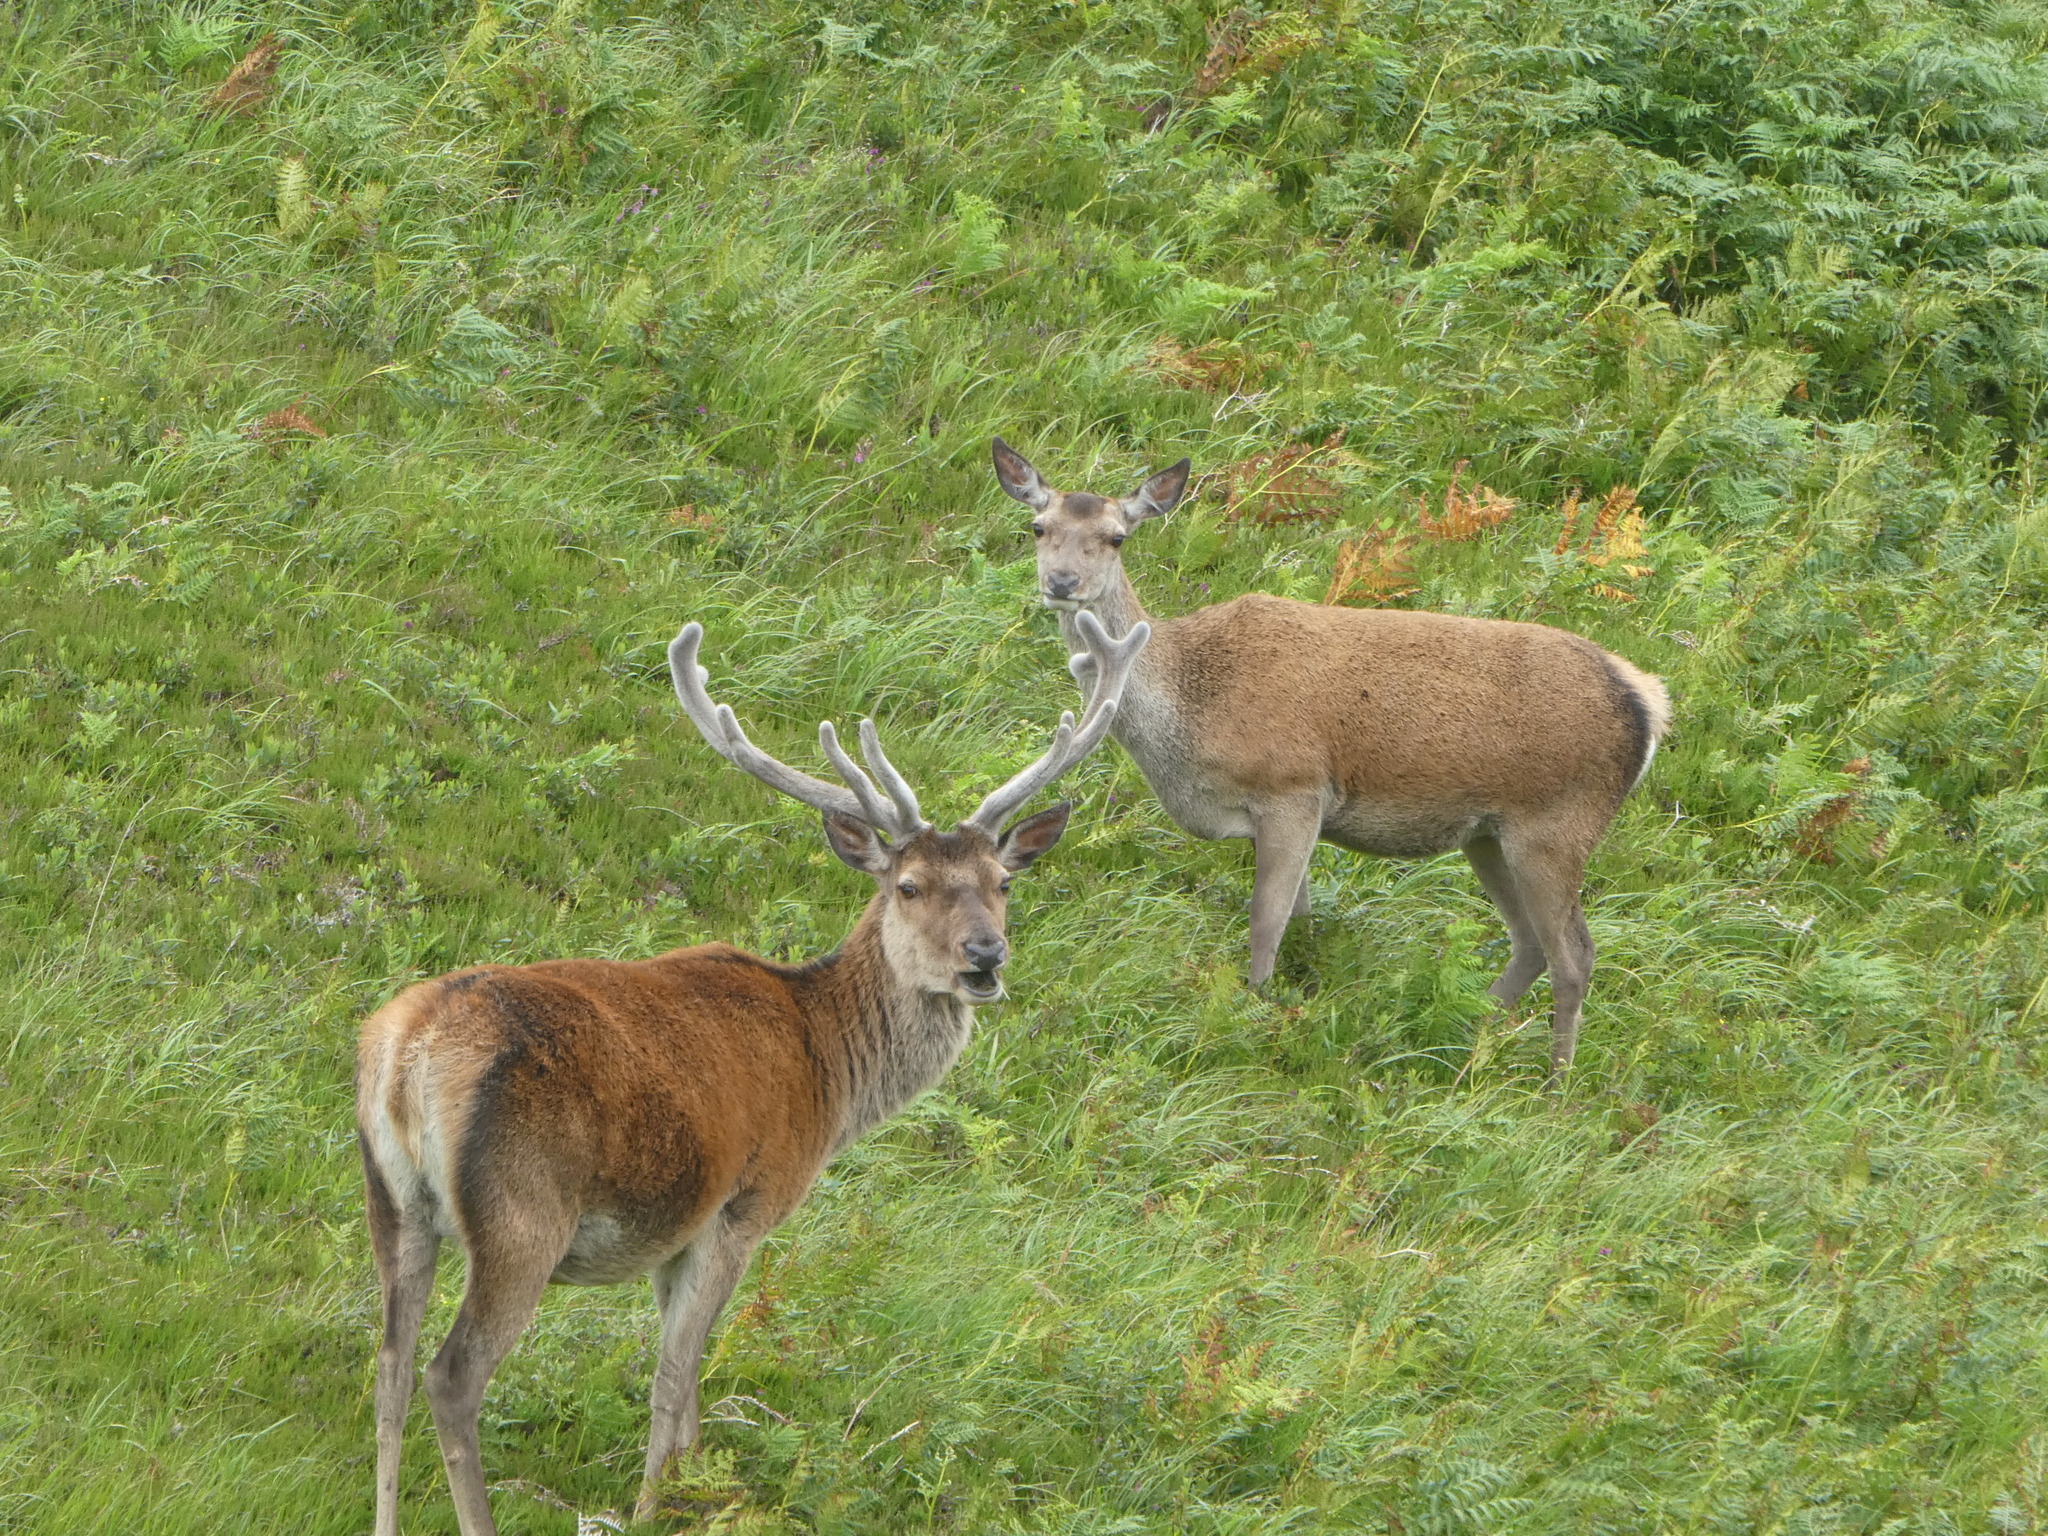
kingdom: Animalia
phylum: Chordata
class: Mammalia
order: Artiodactyla
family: Cervidae
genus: Cervus
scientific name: Cervus elaphus
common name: Red deer
